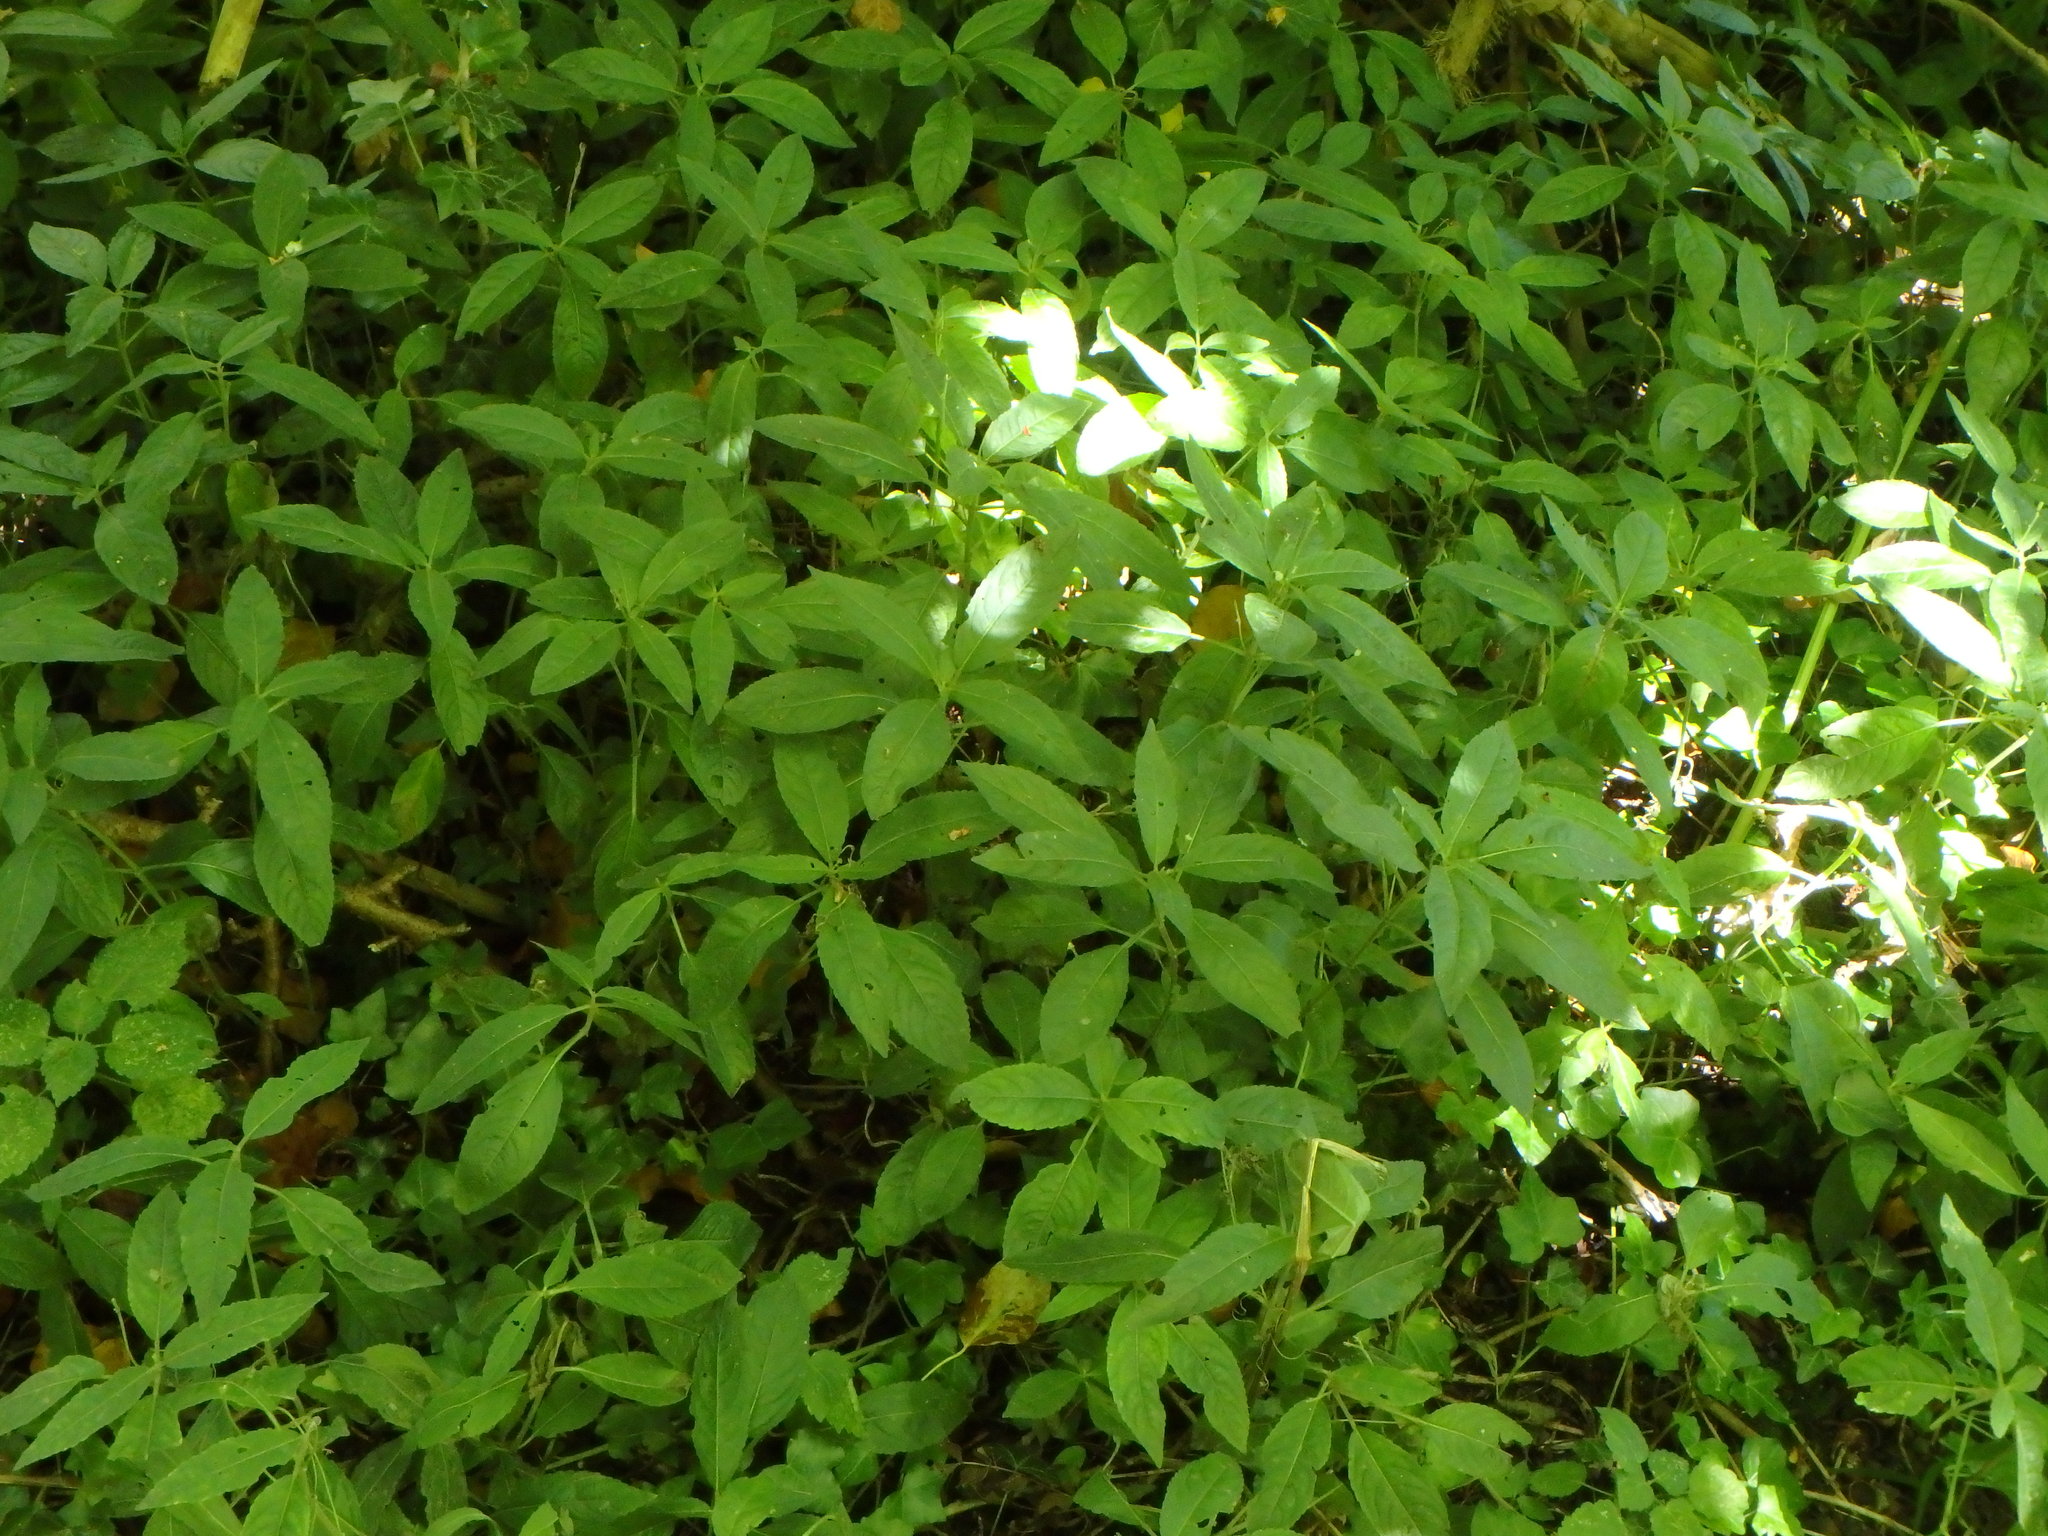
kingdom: Plantae
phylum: Tracheophyta
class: Magnoliopsida
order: Malpighiales
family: Euphorbiaceae
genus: Mercurialis
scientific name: Mercurialis perennis
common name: Dog mercury
